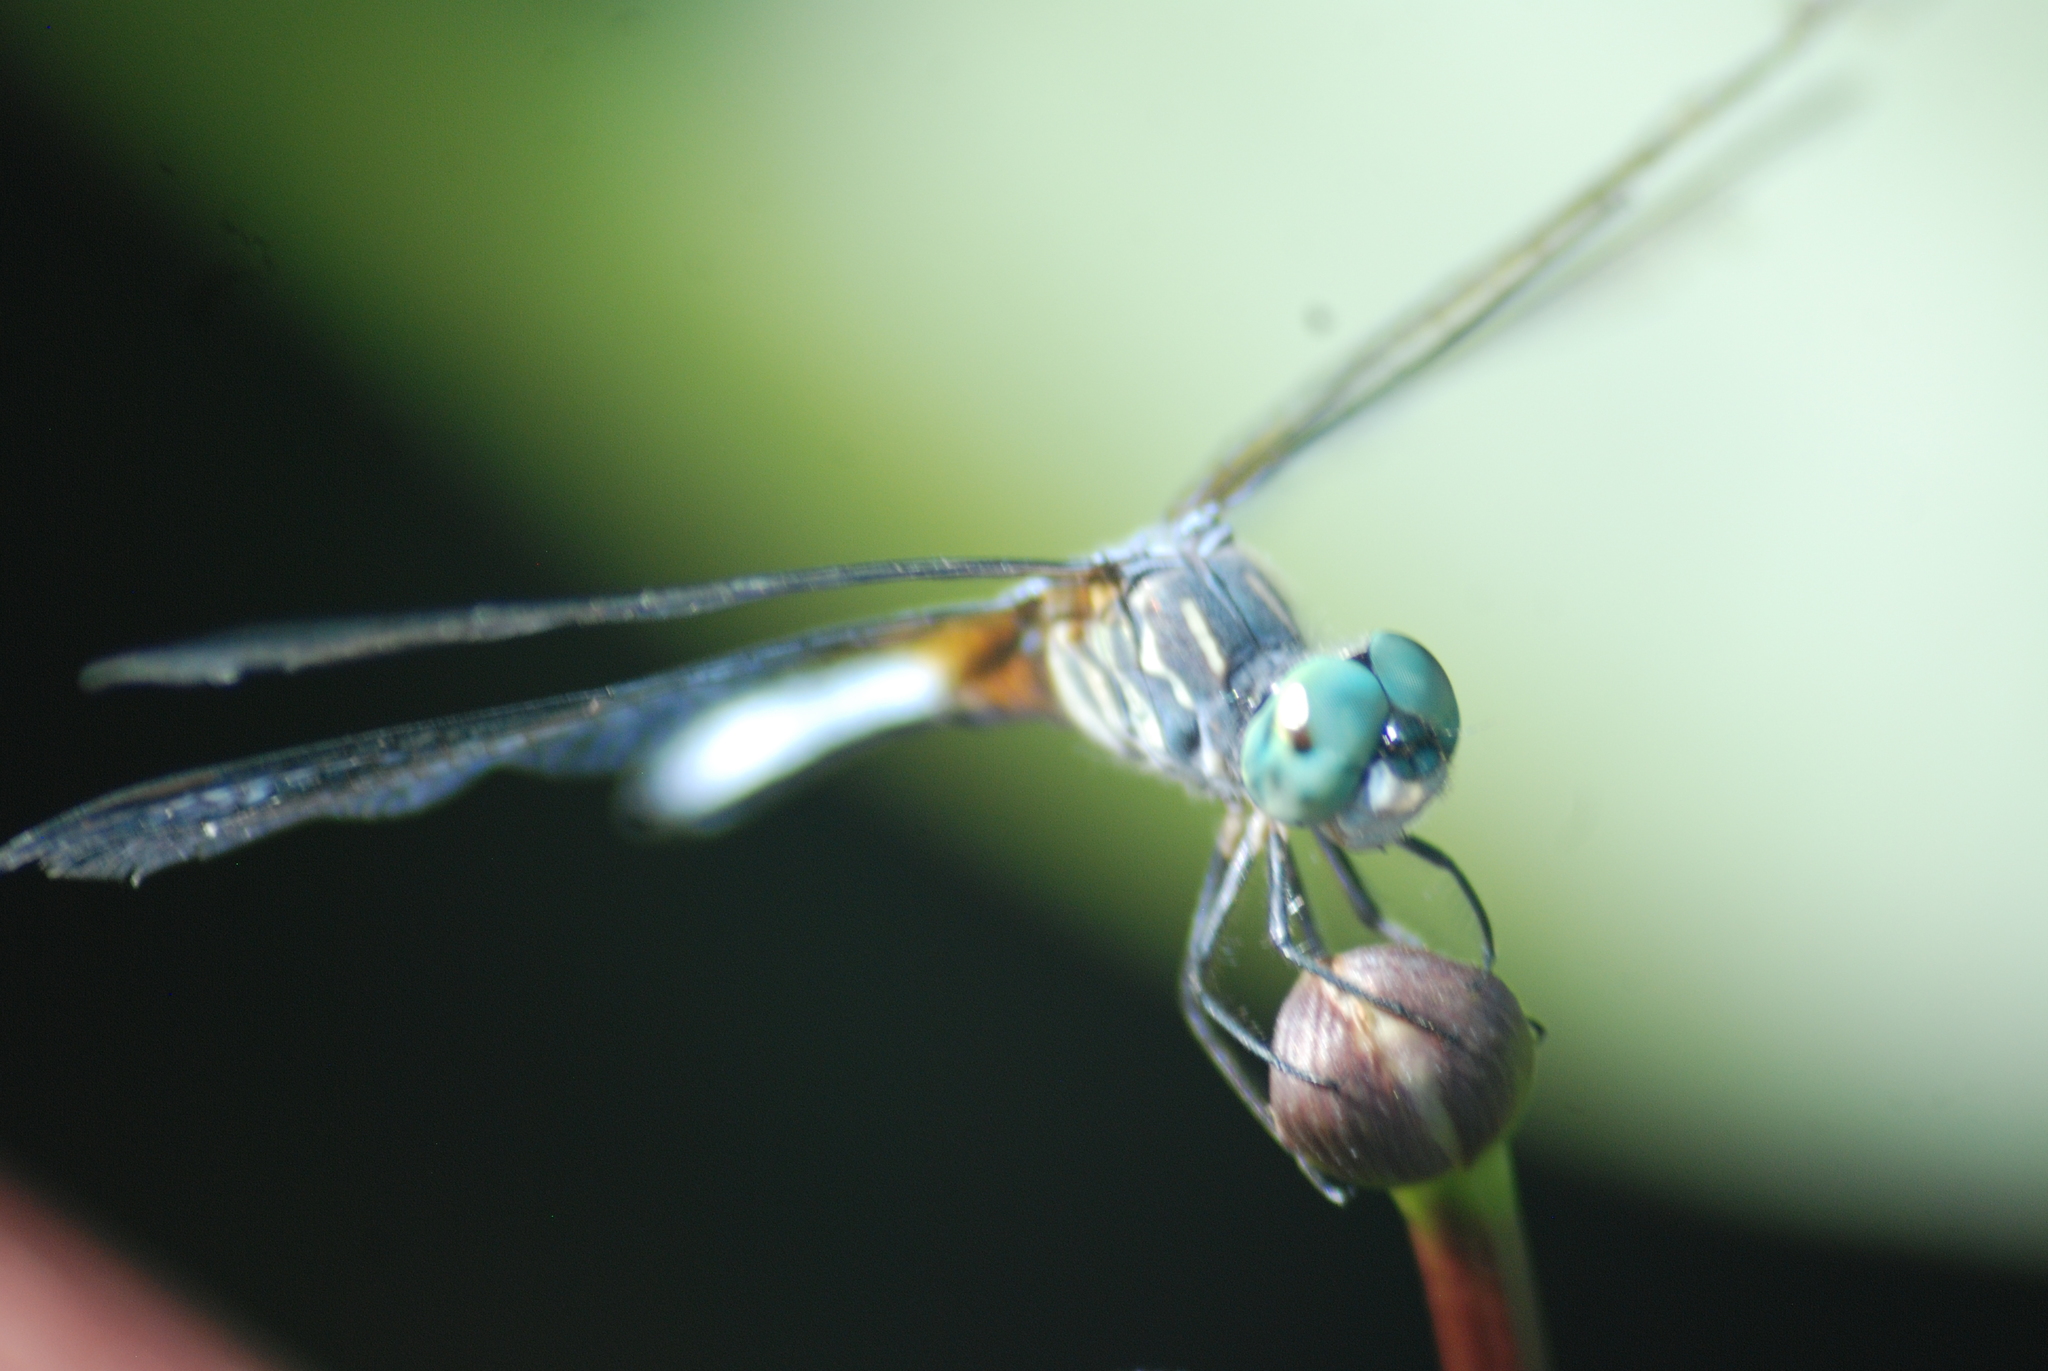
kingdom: Animalia
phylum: Arthropoda
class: Insecta
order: Odonata
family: Libellulidae
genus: Pachydiplax
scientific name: Pachydiplax longipennis
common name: Blue dasher
